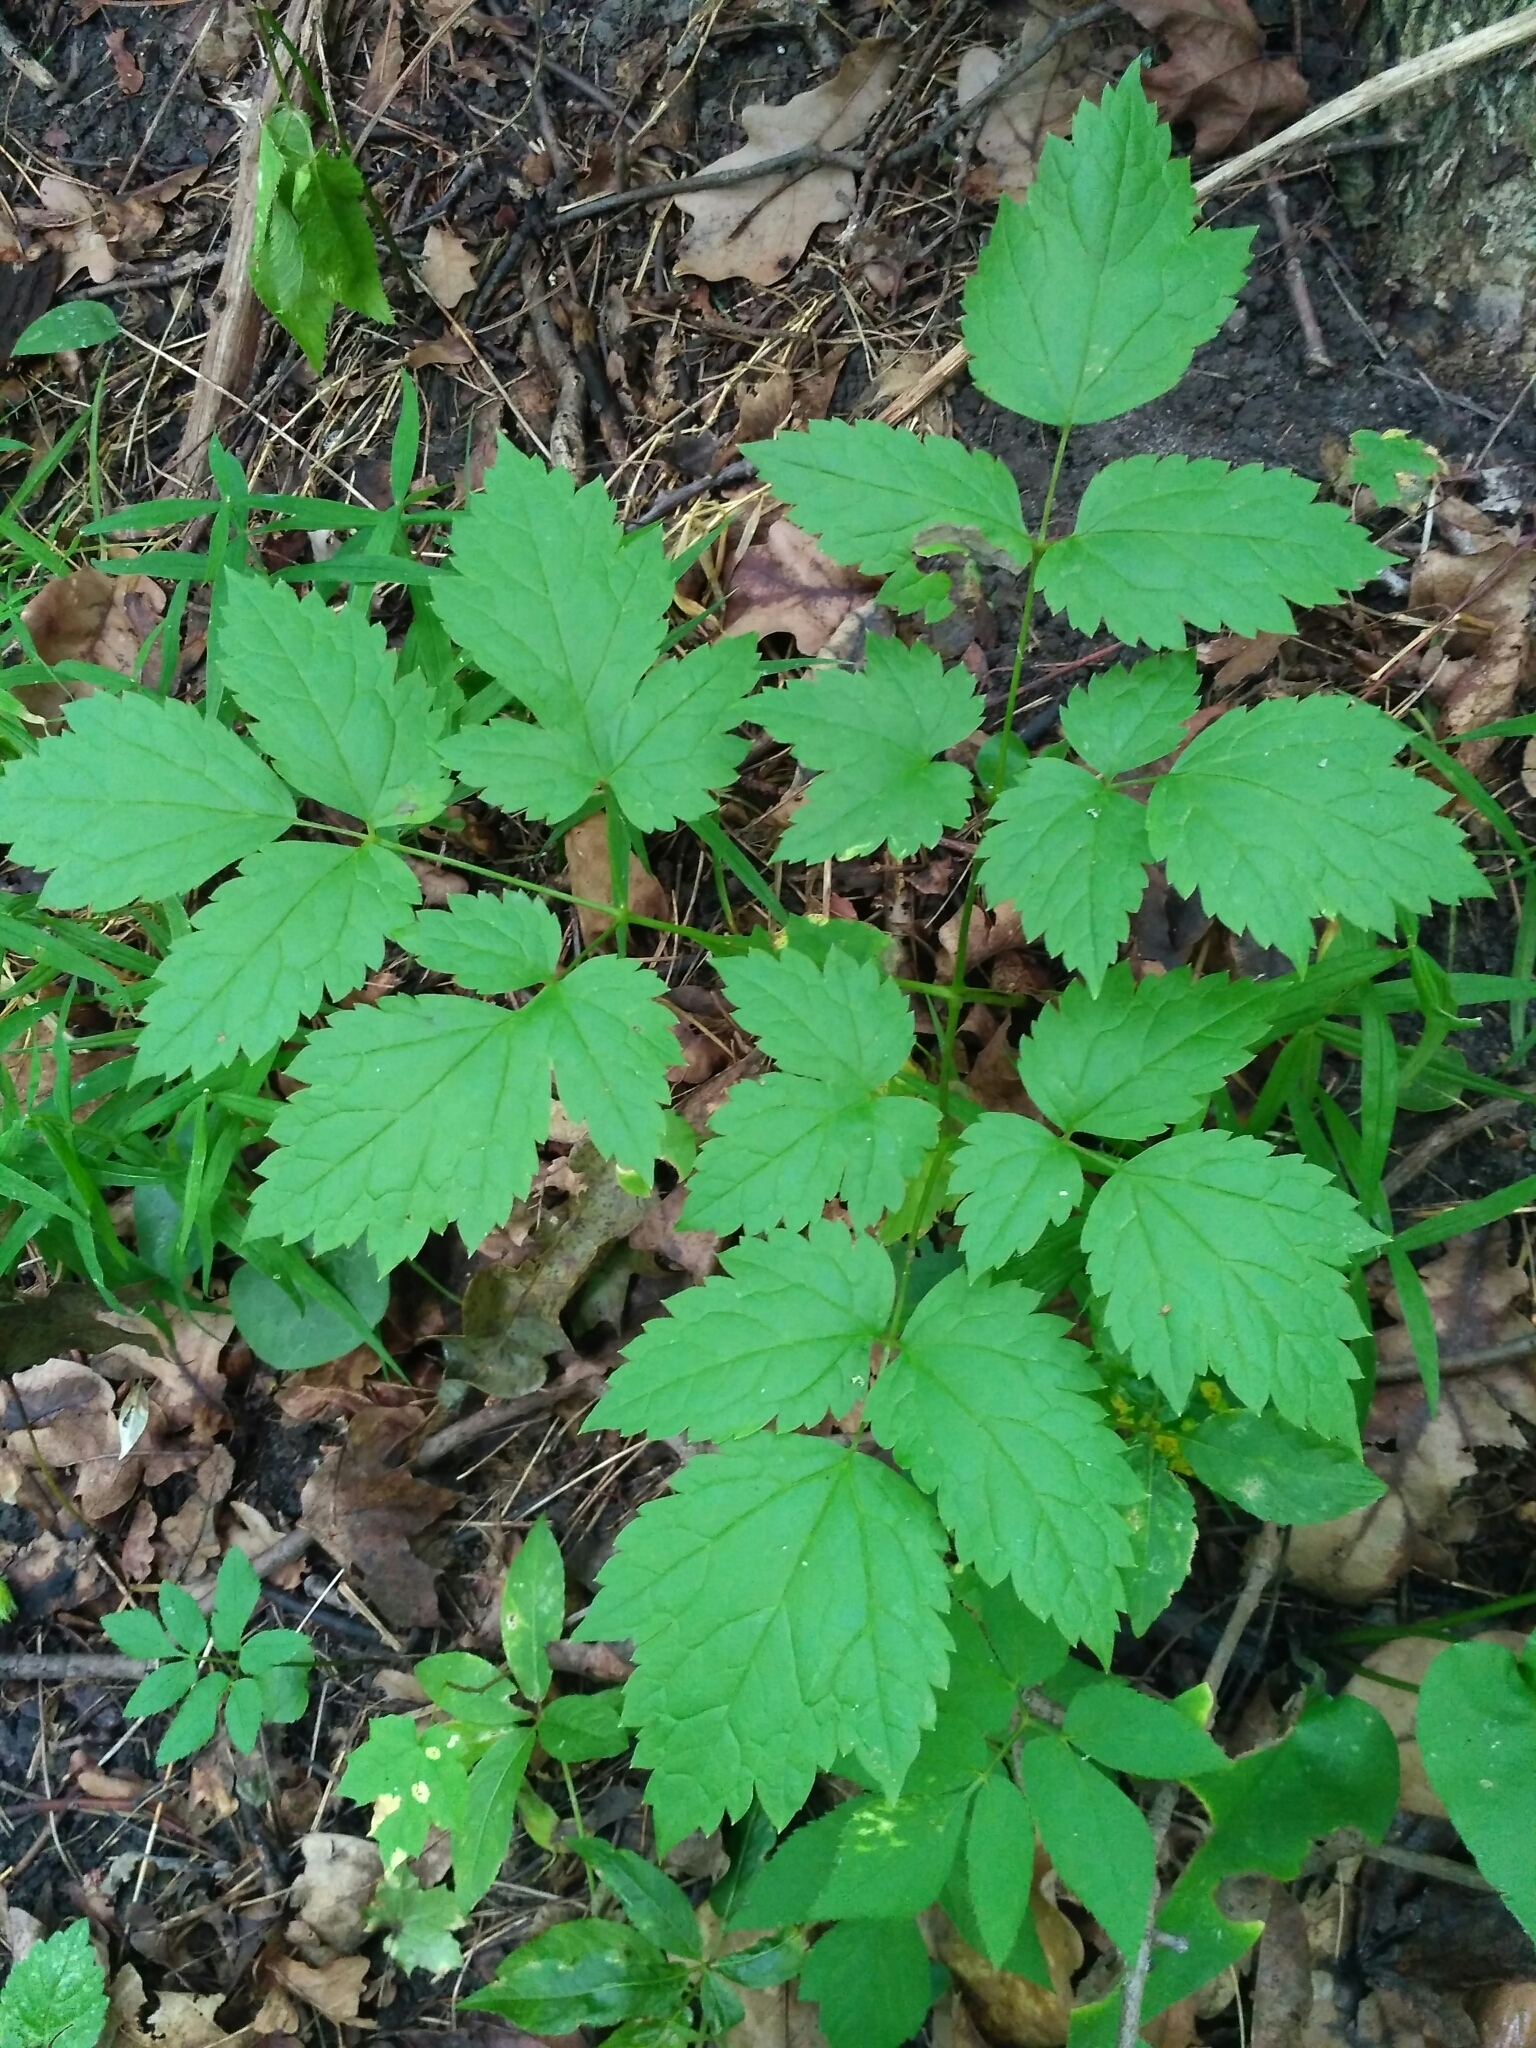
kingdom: Plantae
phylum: Tracheophyta
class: Magnoliopsida
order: Ranunculales
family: Ranunculaceae
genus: Actaea
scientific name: Actaea spicata
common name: Baneberry
